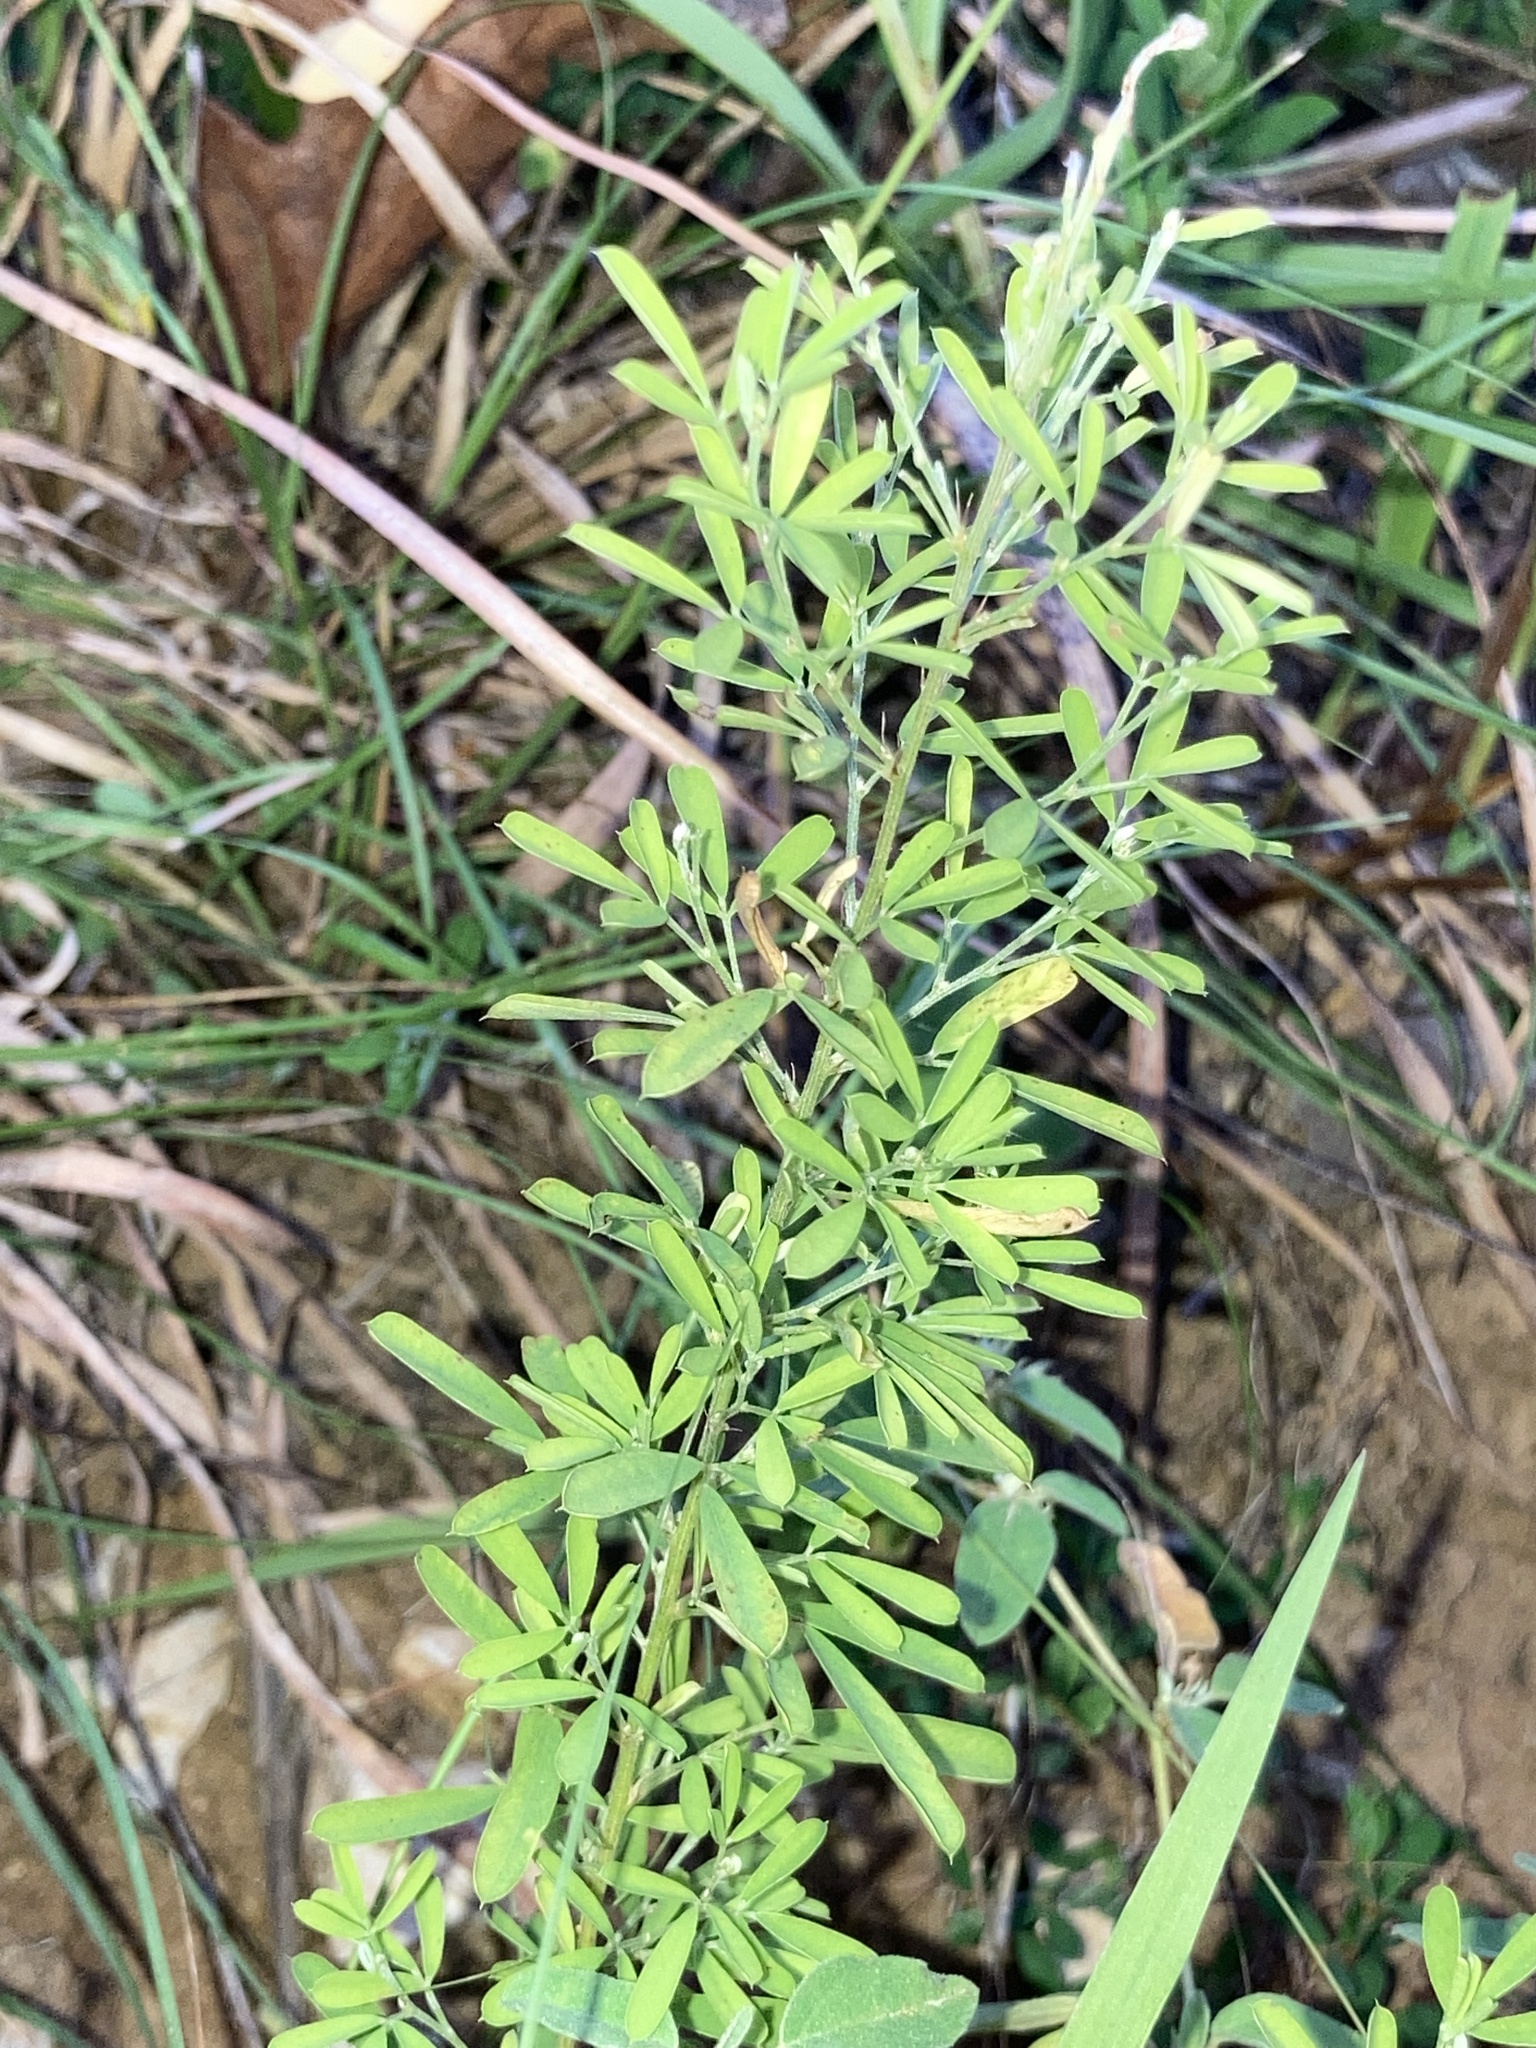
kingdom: Plantae
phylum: Tracheophyta
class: Magnoliopsida
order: Fabales
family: Fabaceae
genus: Lespedeza
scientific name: Lespedeza cuneata
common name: Chinese bush-clover
